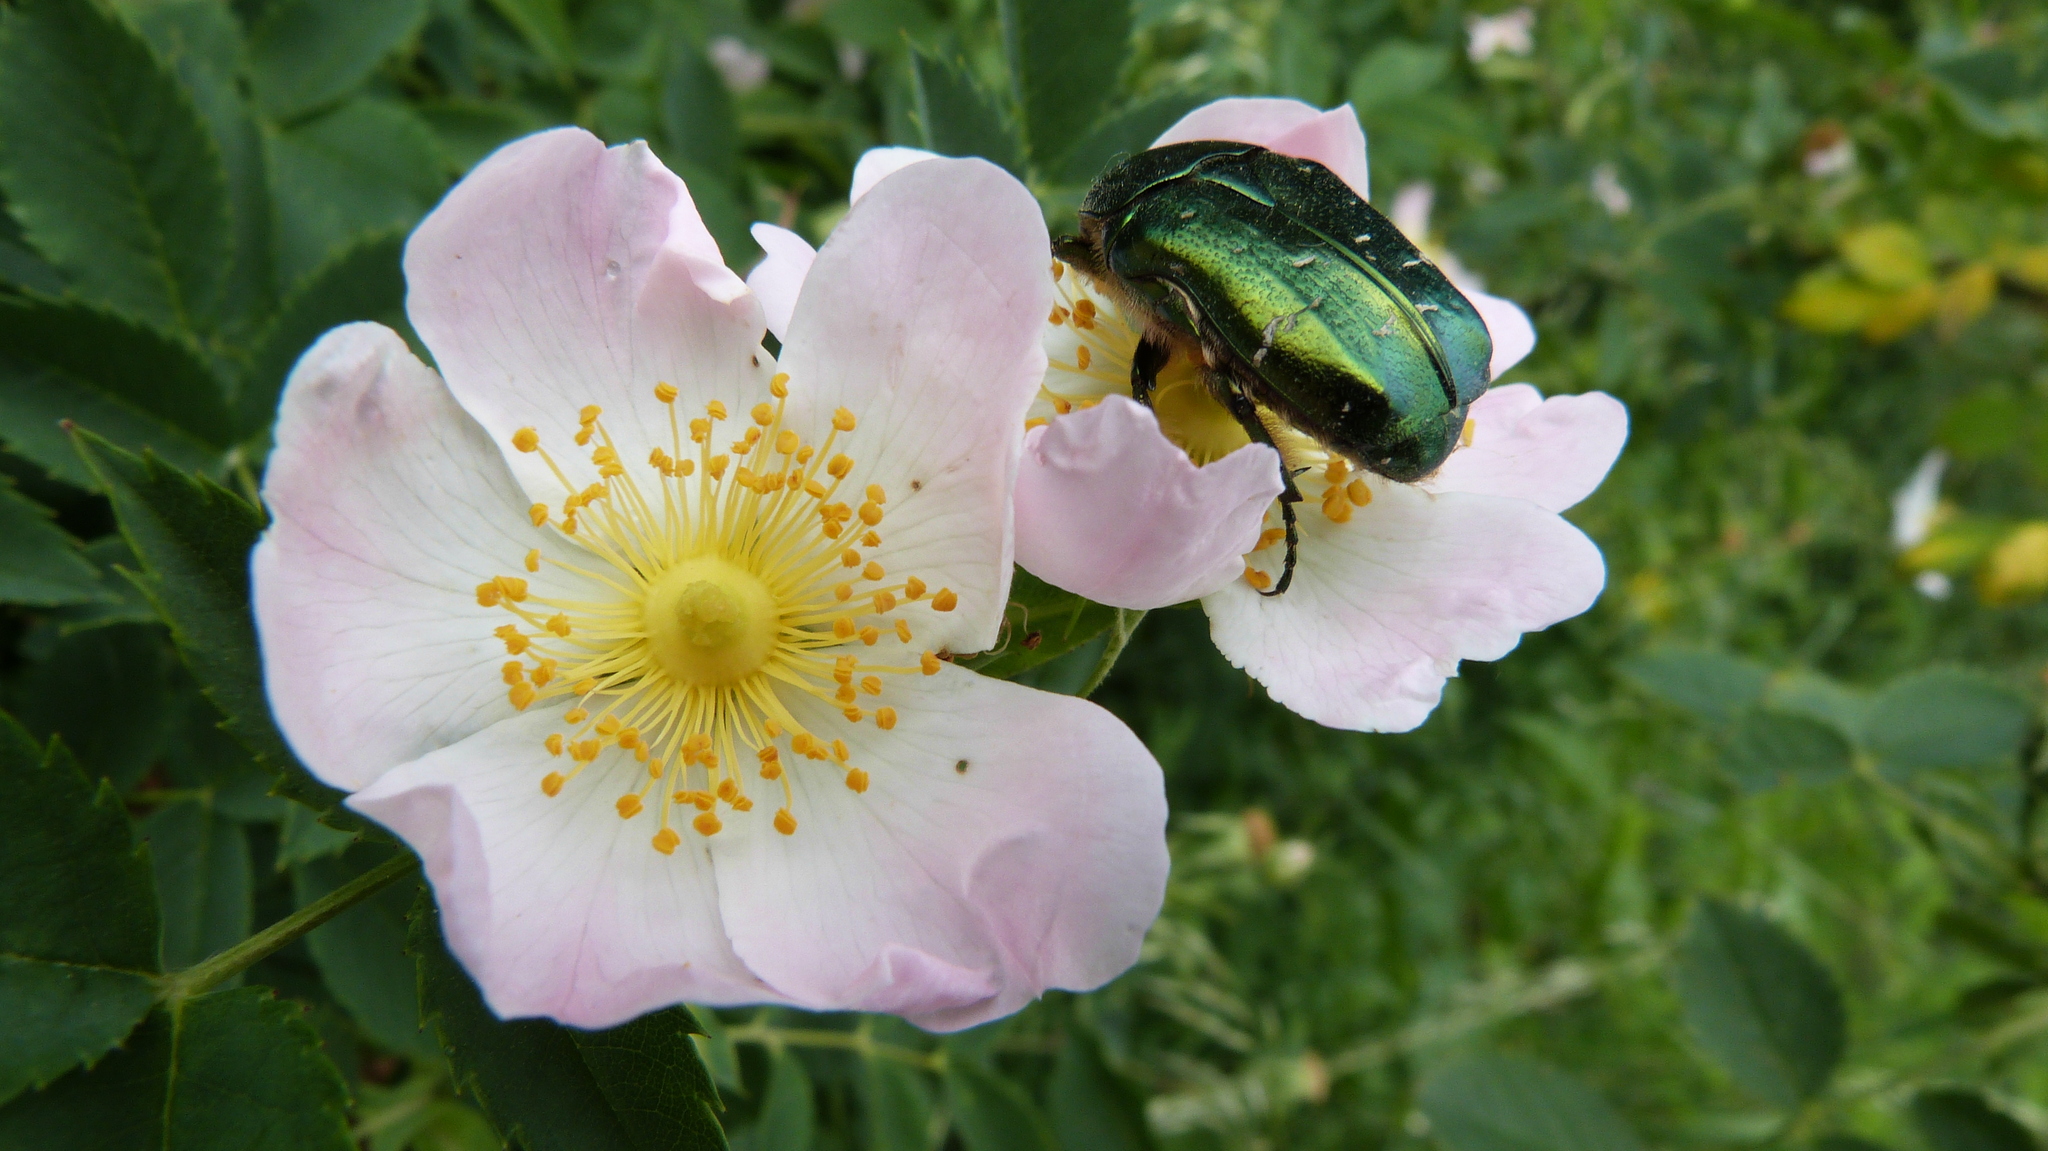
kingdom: Animalia
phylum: Arthropoda
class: Insecta
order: Coleoptera
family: Scarabaeidae
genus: Cetonia
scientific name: Cetonia aurata
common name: Rose chafer
